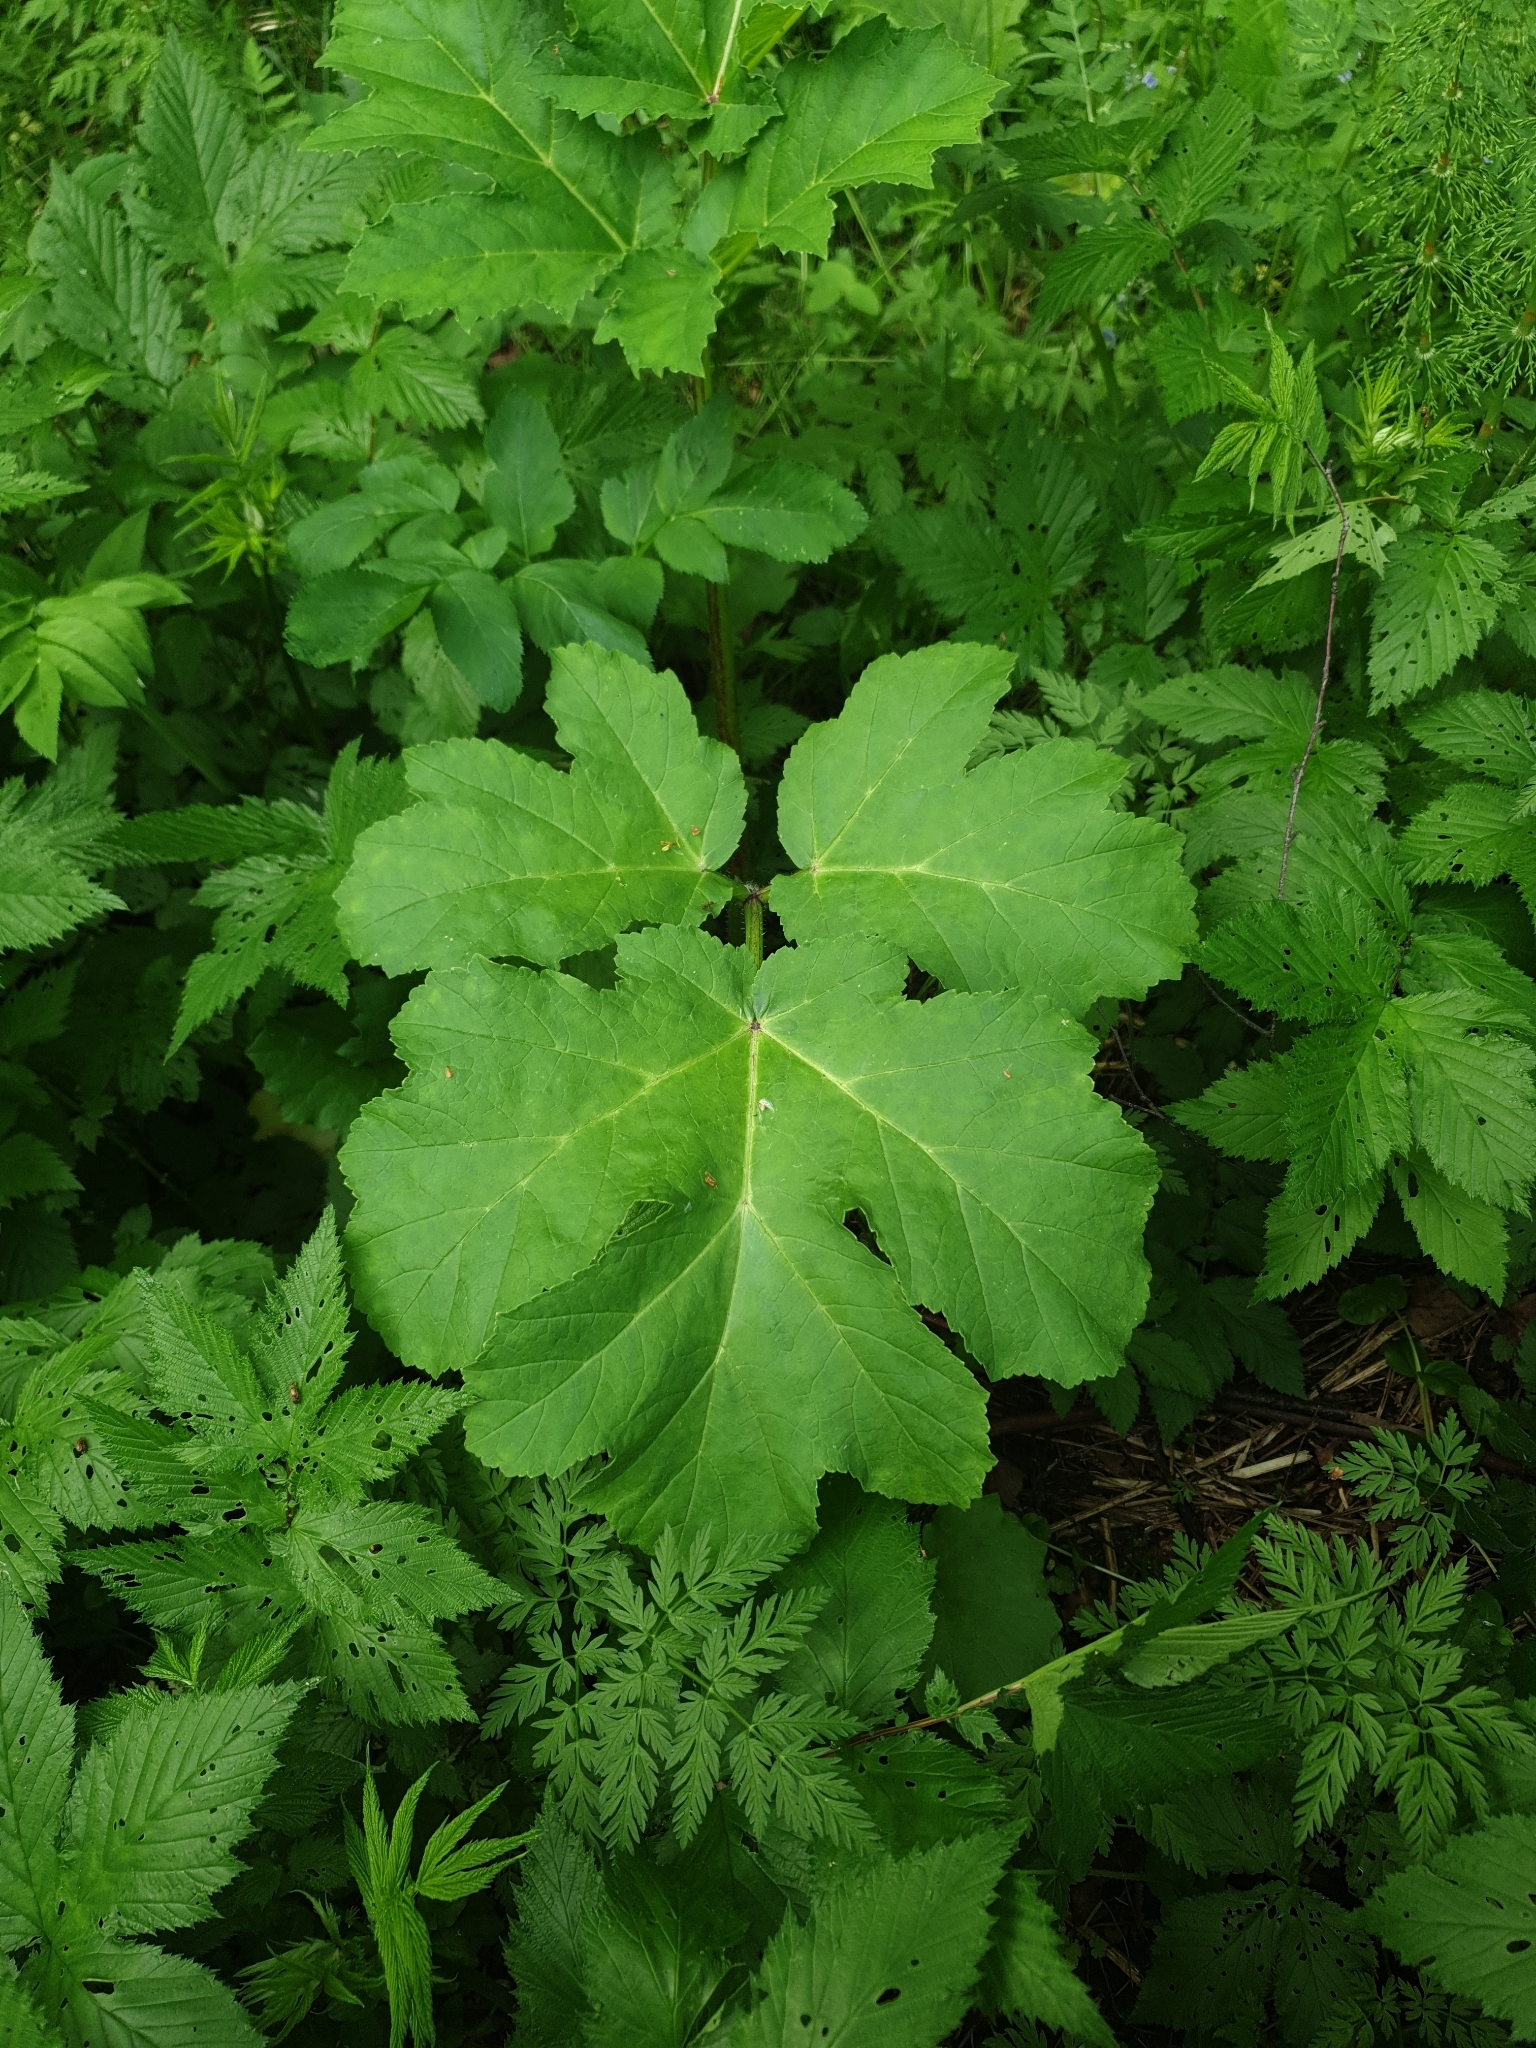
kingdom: Plantae
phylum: Tracheophyta
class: Magnoliopsida
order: Apiales
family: Apiaceae
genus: Heracleum
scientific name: Heracleum sosnowskyi
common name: Sosnowsky's hogweed
